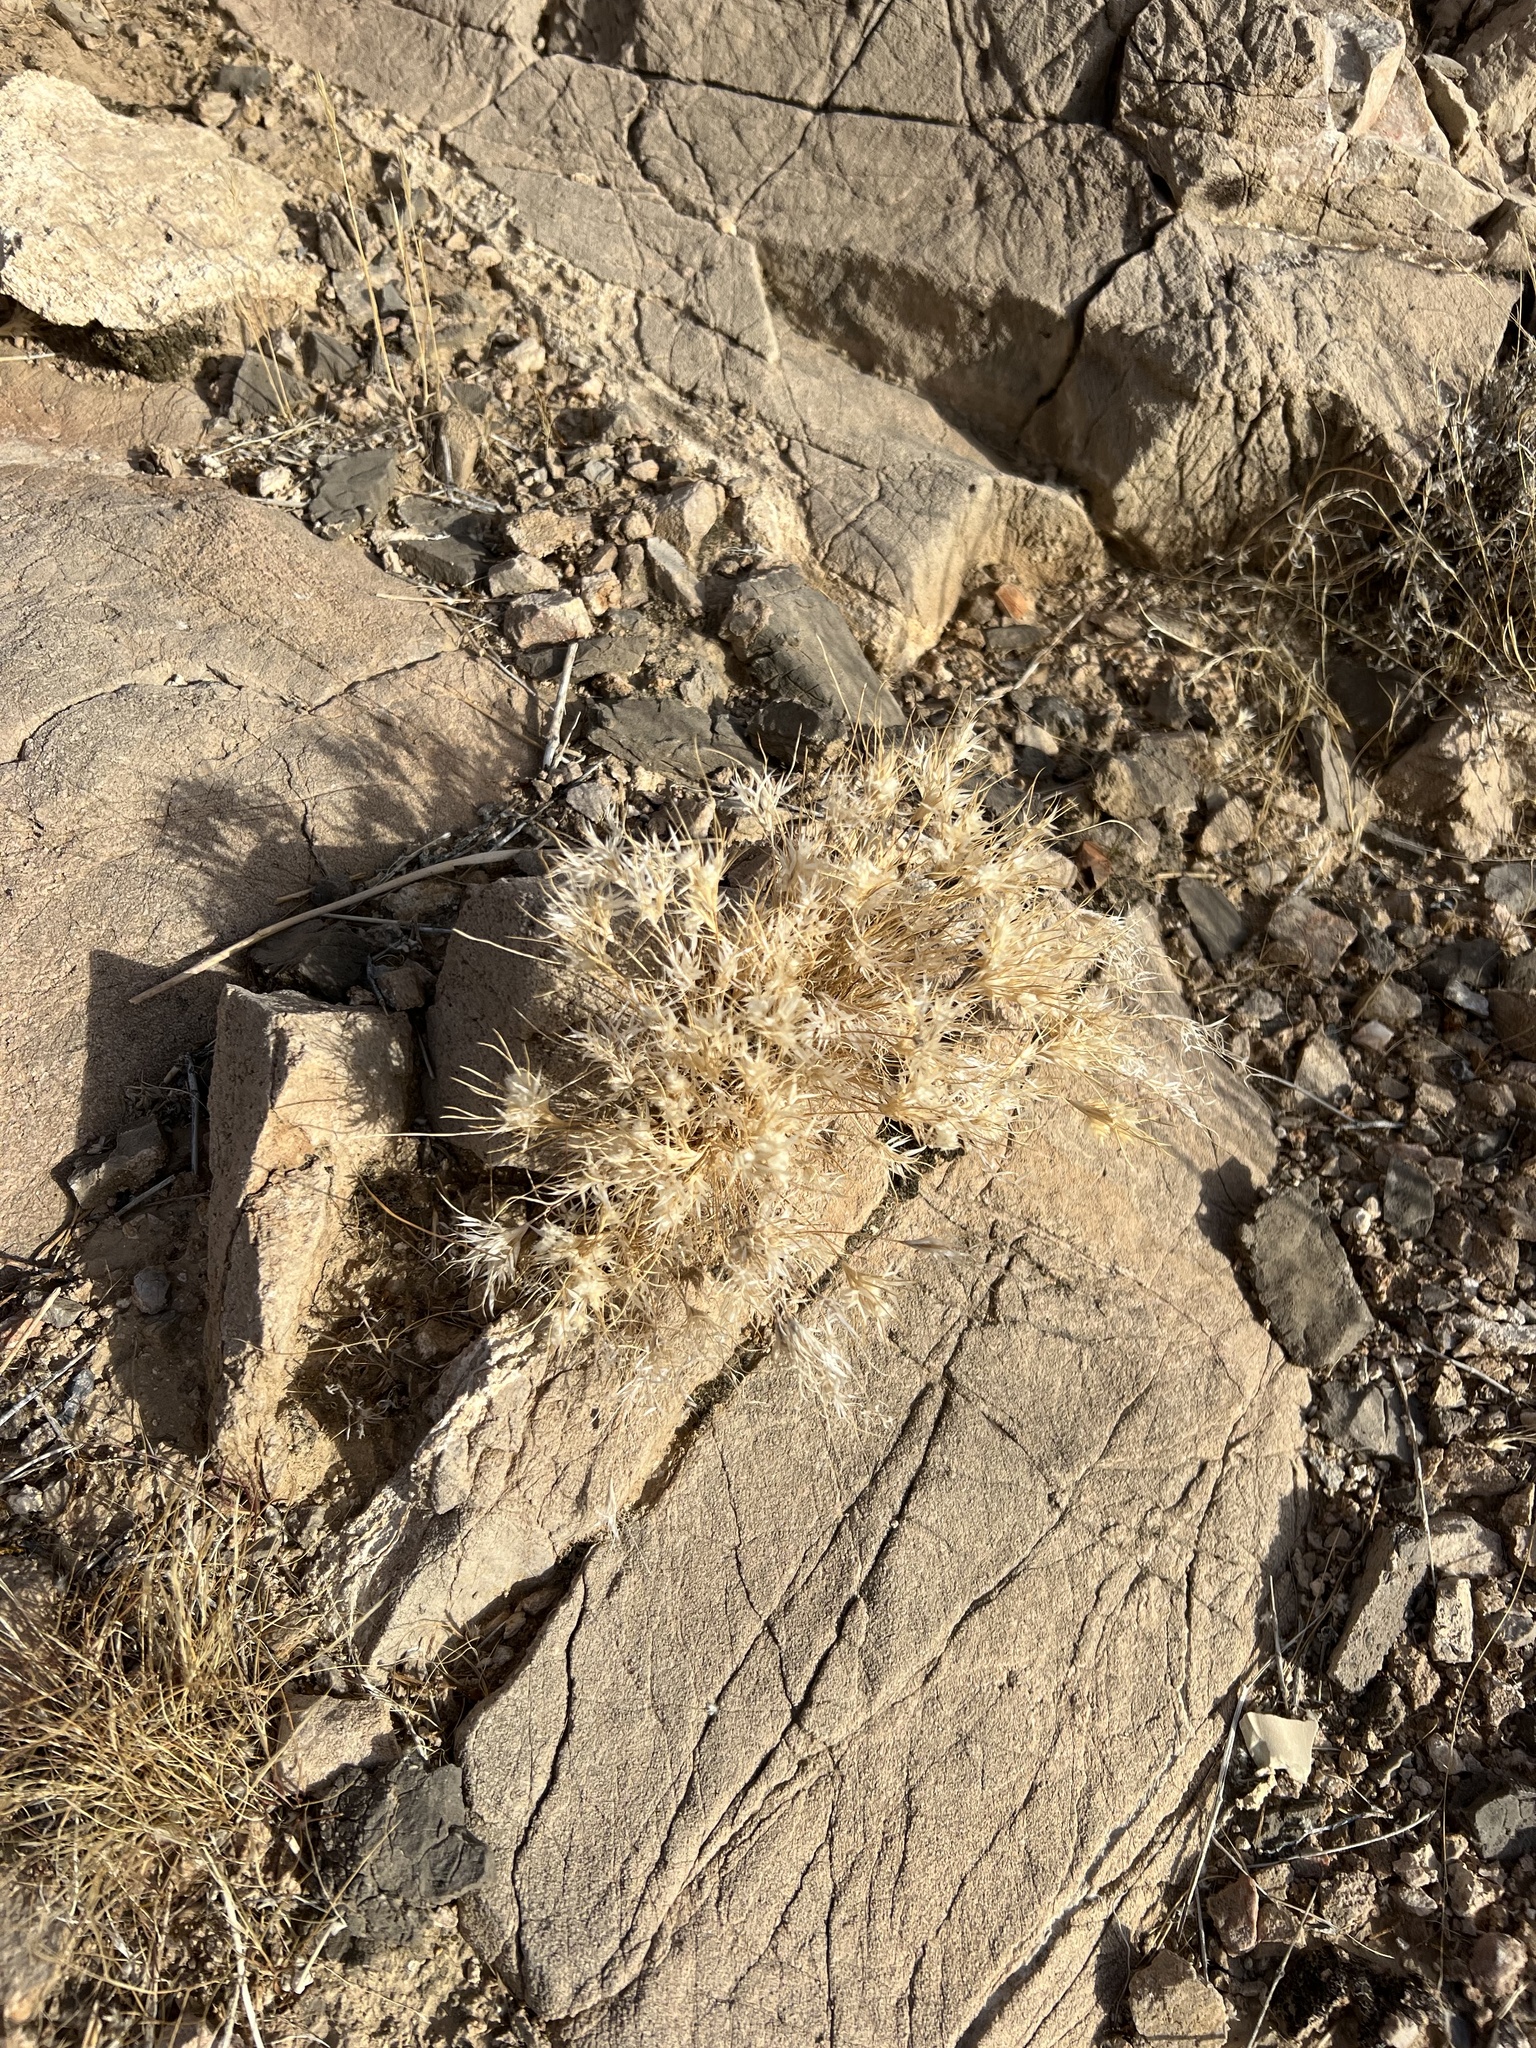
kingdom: Plantae
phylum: Tracheophyta
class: Liliopsida
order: Poales
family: Poaceae
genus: Dasyochloa
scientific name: Dasyochloa pulchella
